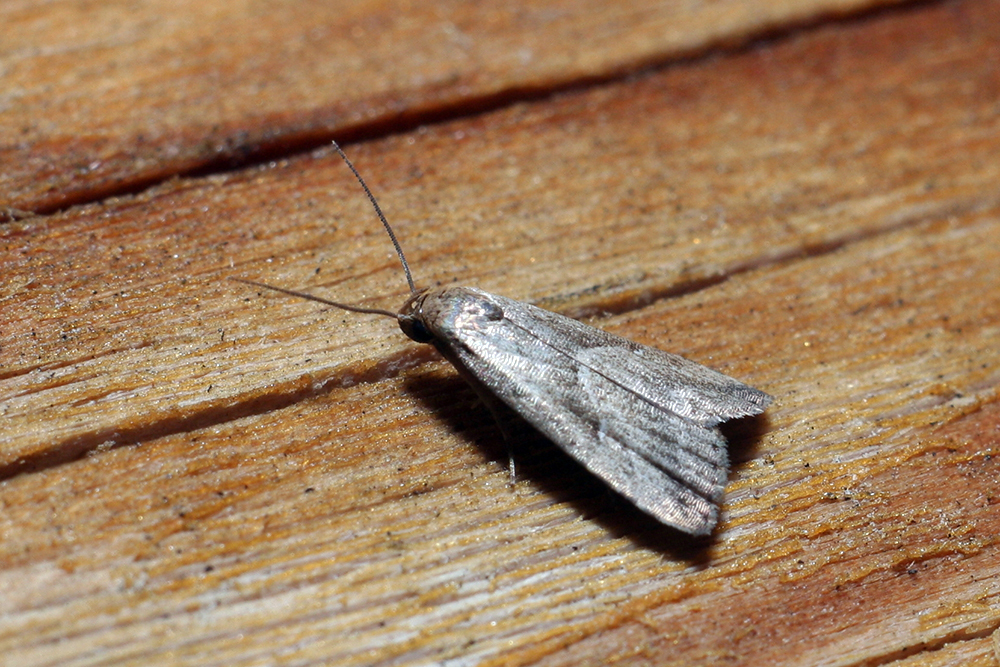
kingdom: Animalia
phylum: Arthropoda
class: Insecta
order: Lepidoptera
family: Erebidae
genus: Hypenodes
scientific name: Hypenodes humidalis
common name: Marsh oblique-barred
